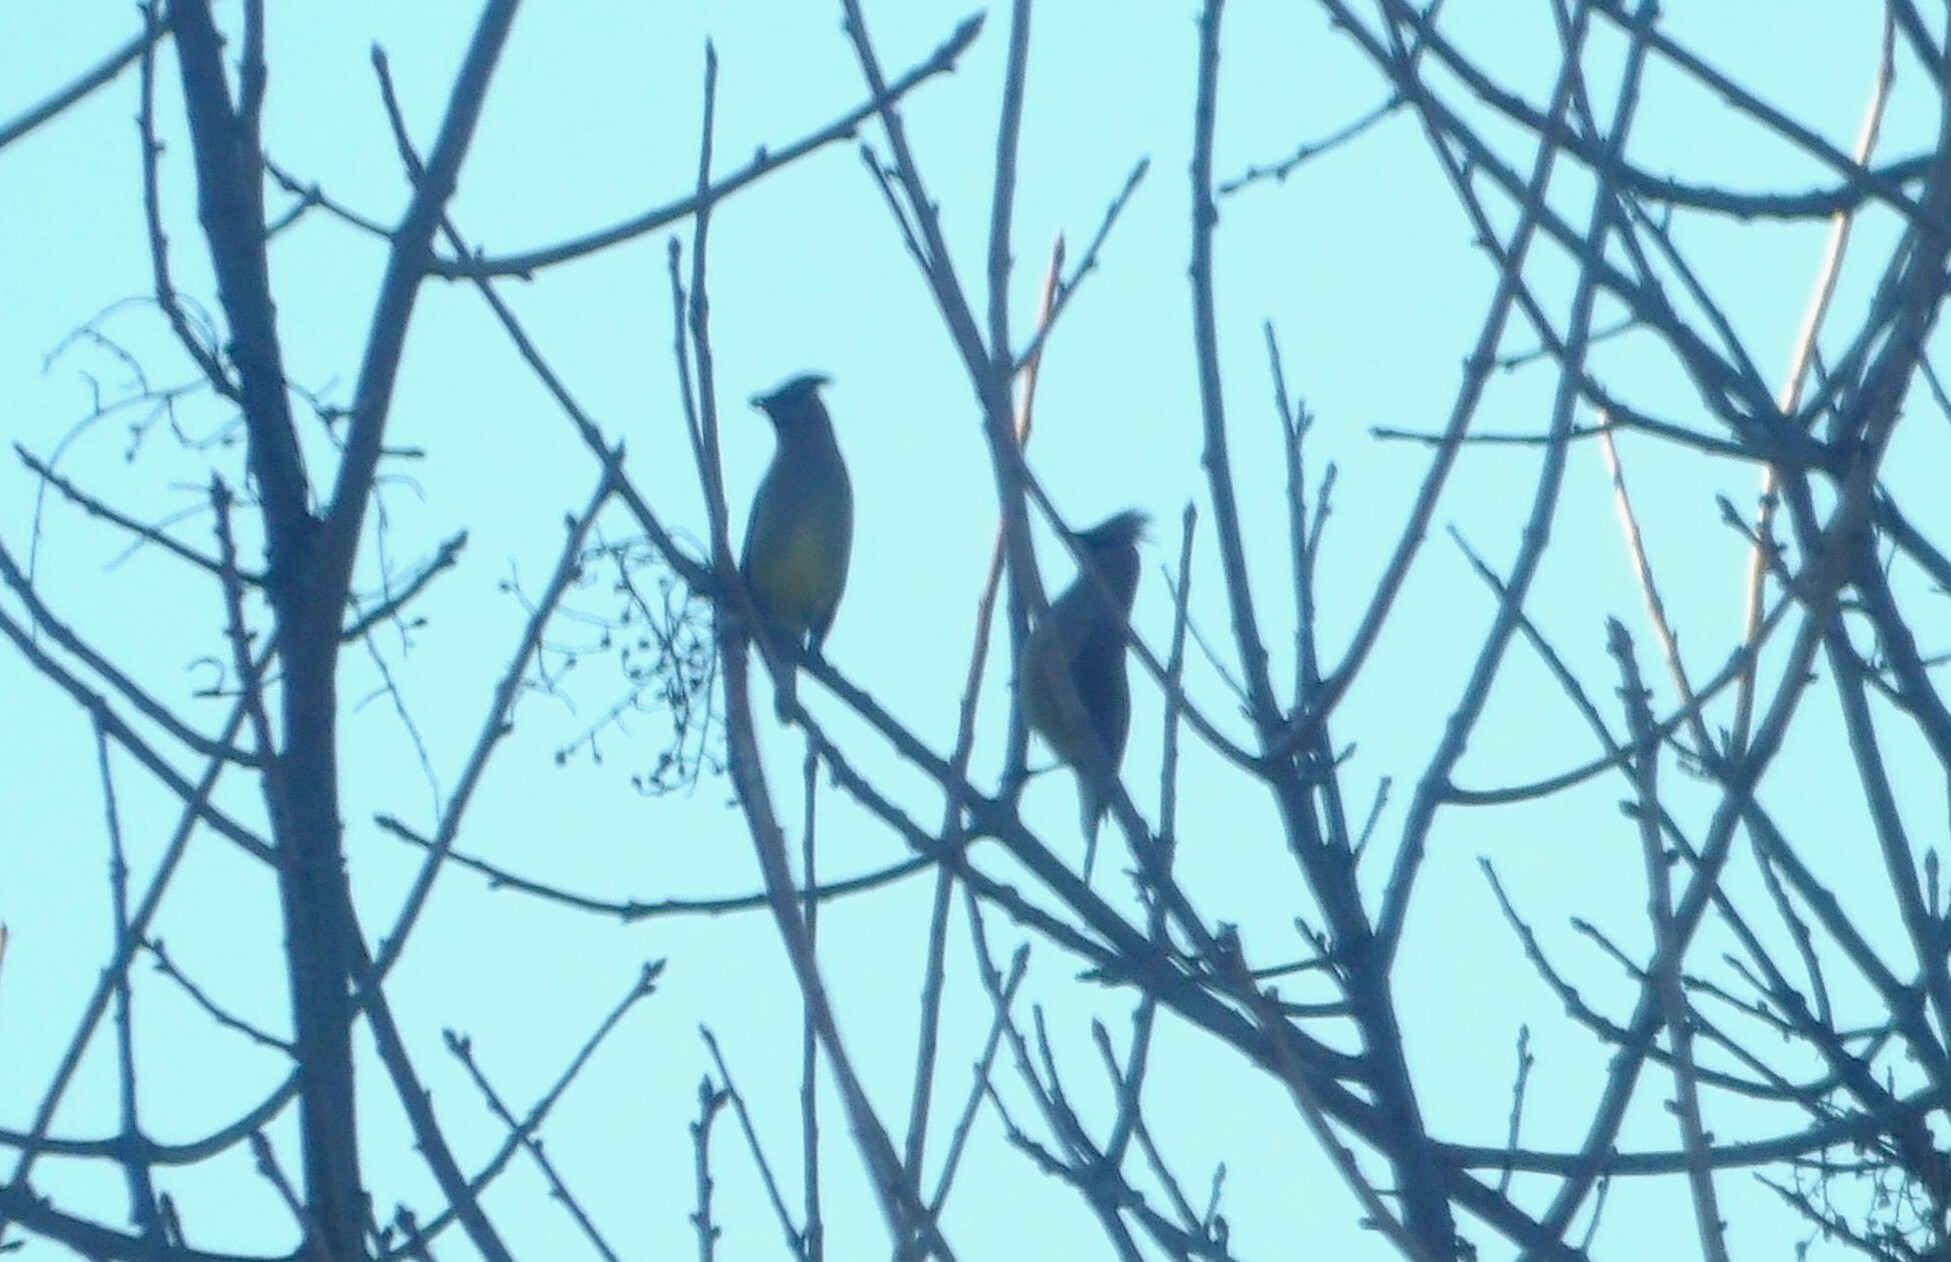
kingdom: Animalia
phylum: Chordata
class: Aves
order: Passeriformes
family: Bombycillidae
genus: Bombycilla
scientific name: Bombycilla cedrorum
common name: Cedar waxwing
